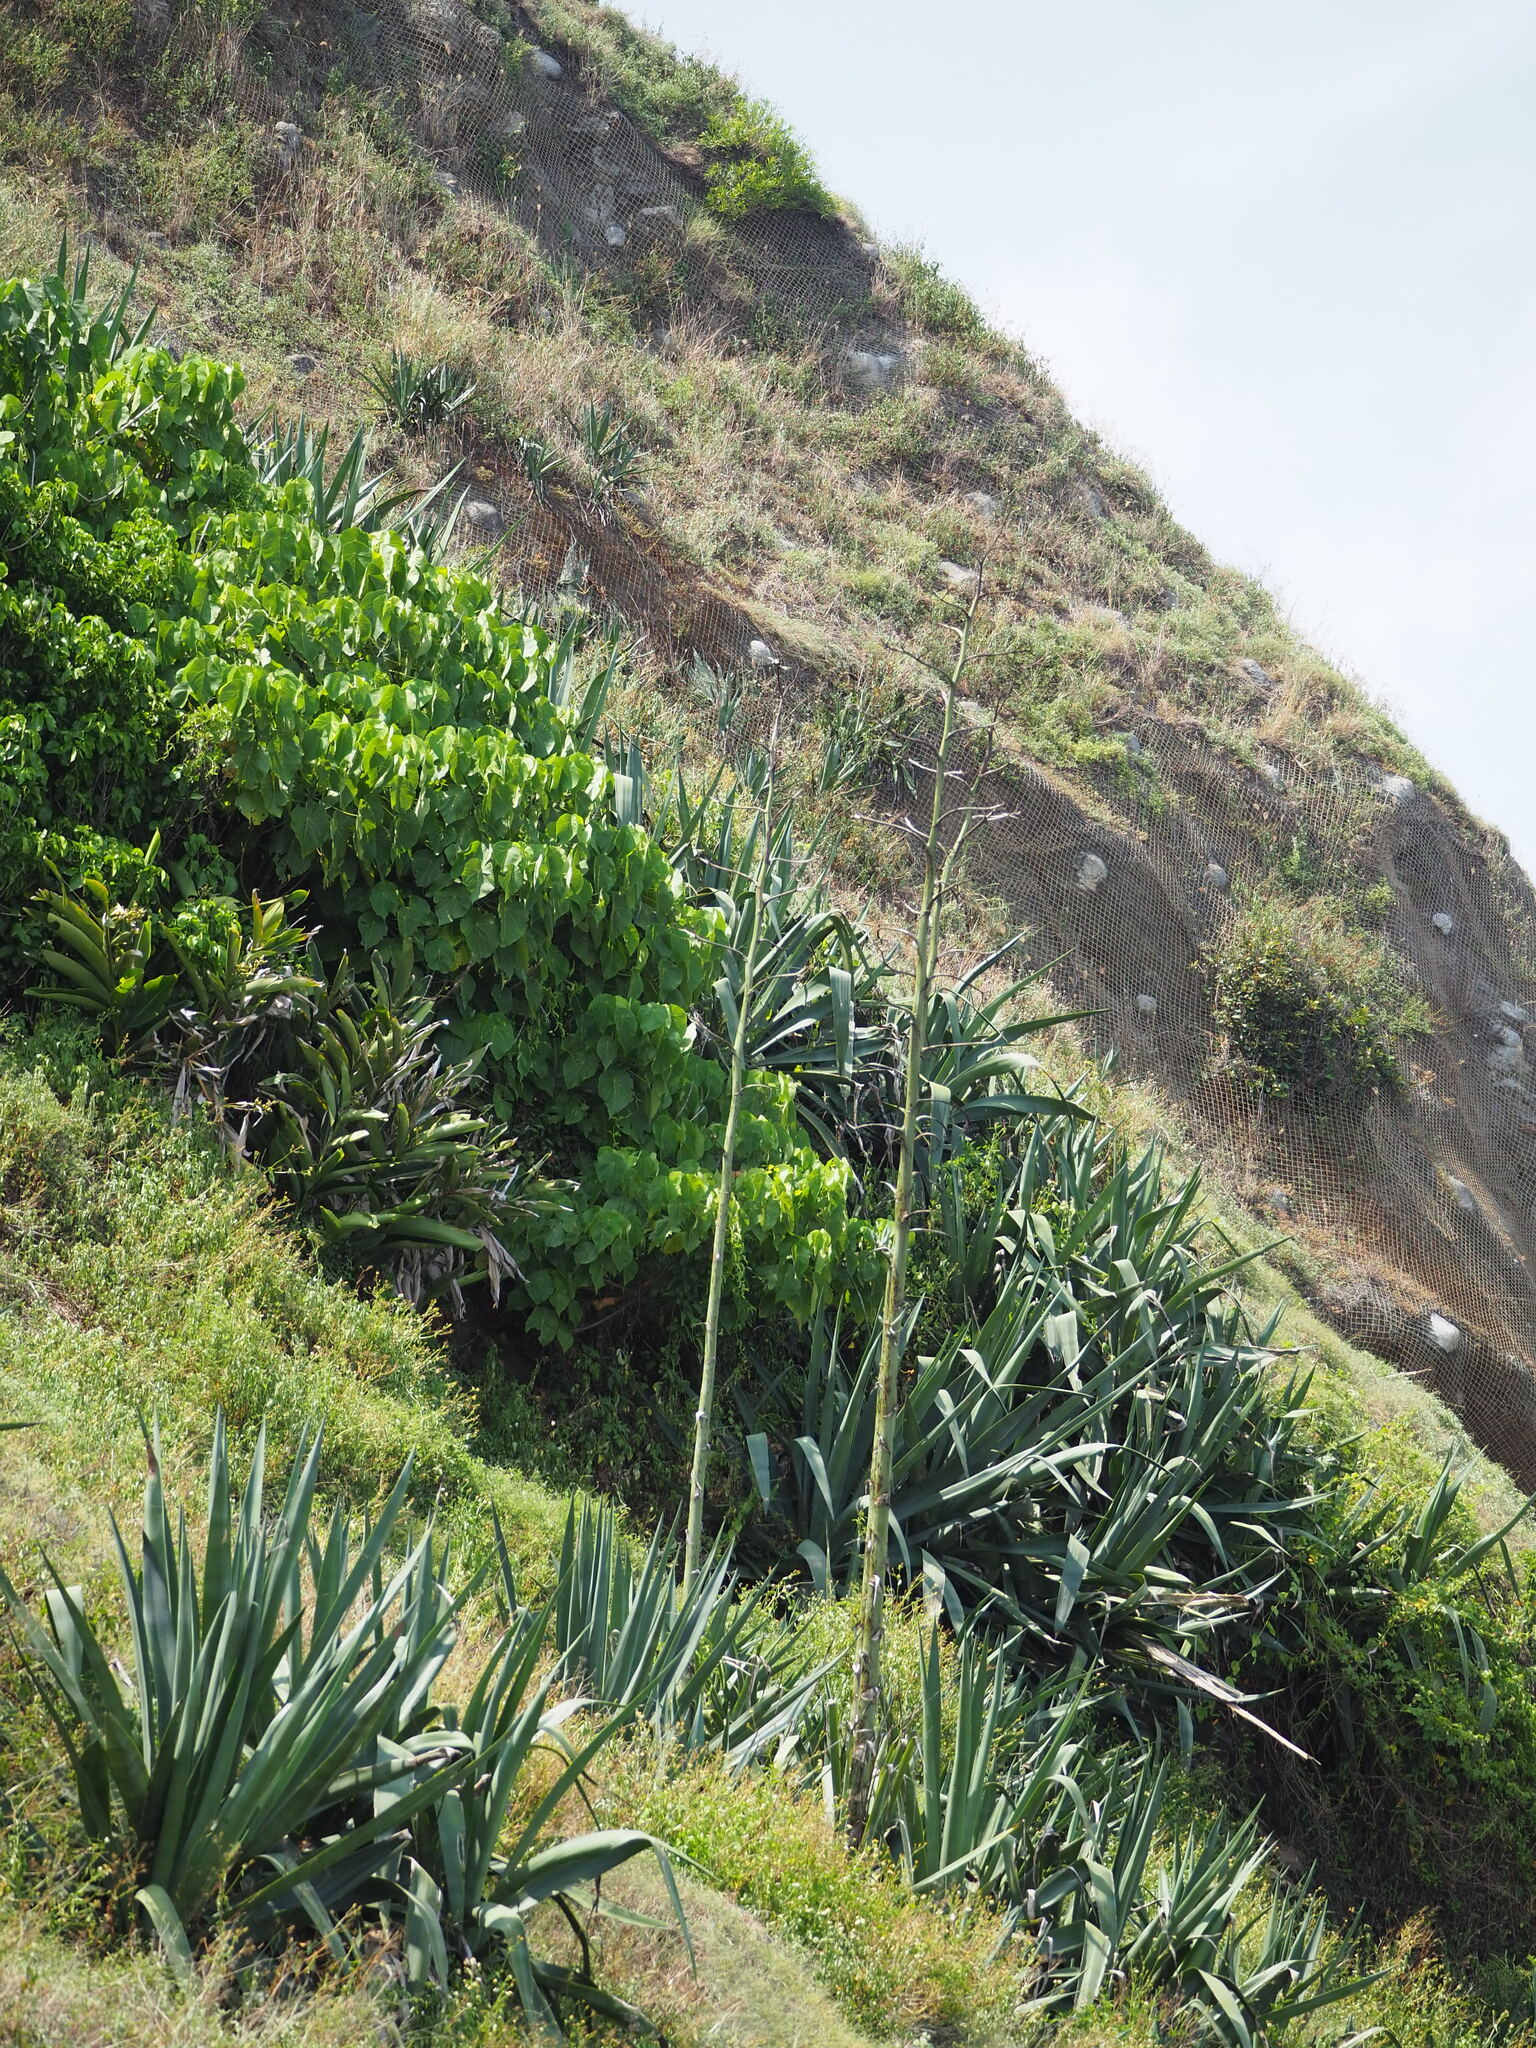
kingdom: Plantae
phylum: Tracheophyta
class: Liliopsida
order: Asparagales
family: Asparagaceae
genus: Agave
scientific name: Agave sisalana
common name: Sisal hemp
